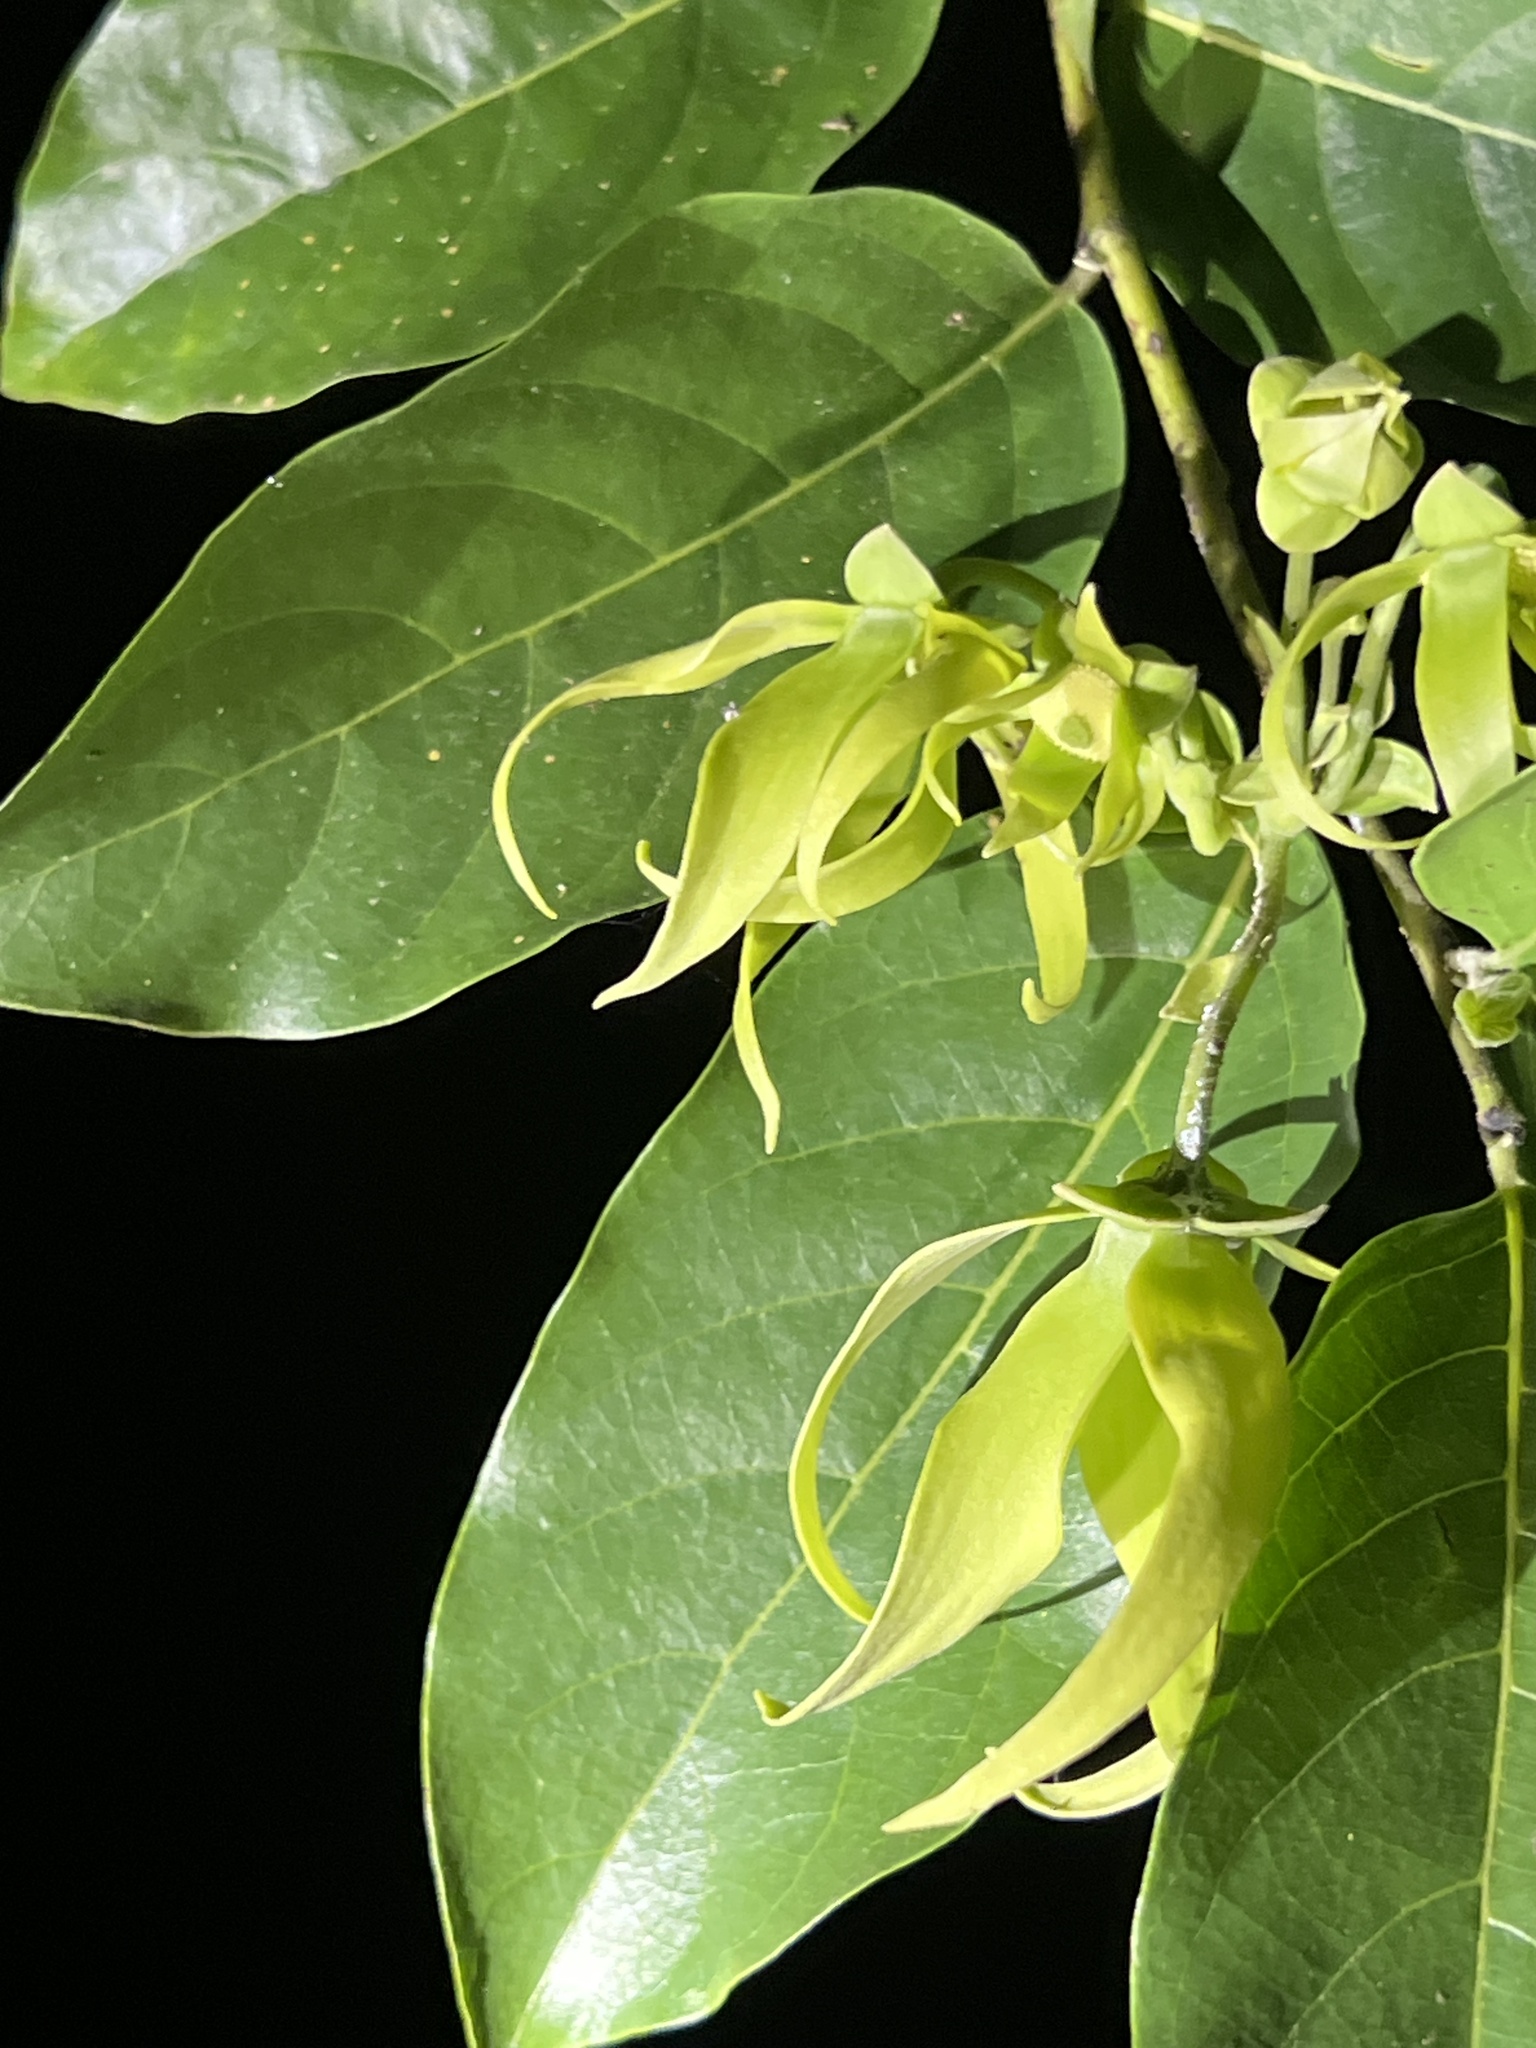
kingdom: Plantae
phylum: Tracheophyta
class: Magnoliopsida
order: Magnoliales
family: Annonaceae
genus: Cananga
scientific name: Cananga odorata
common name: Cananga tree
